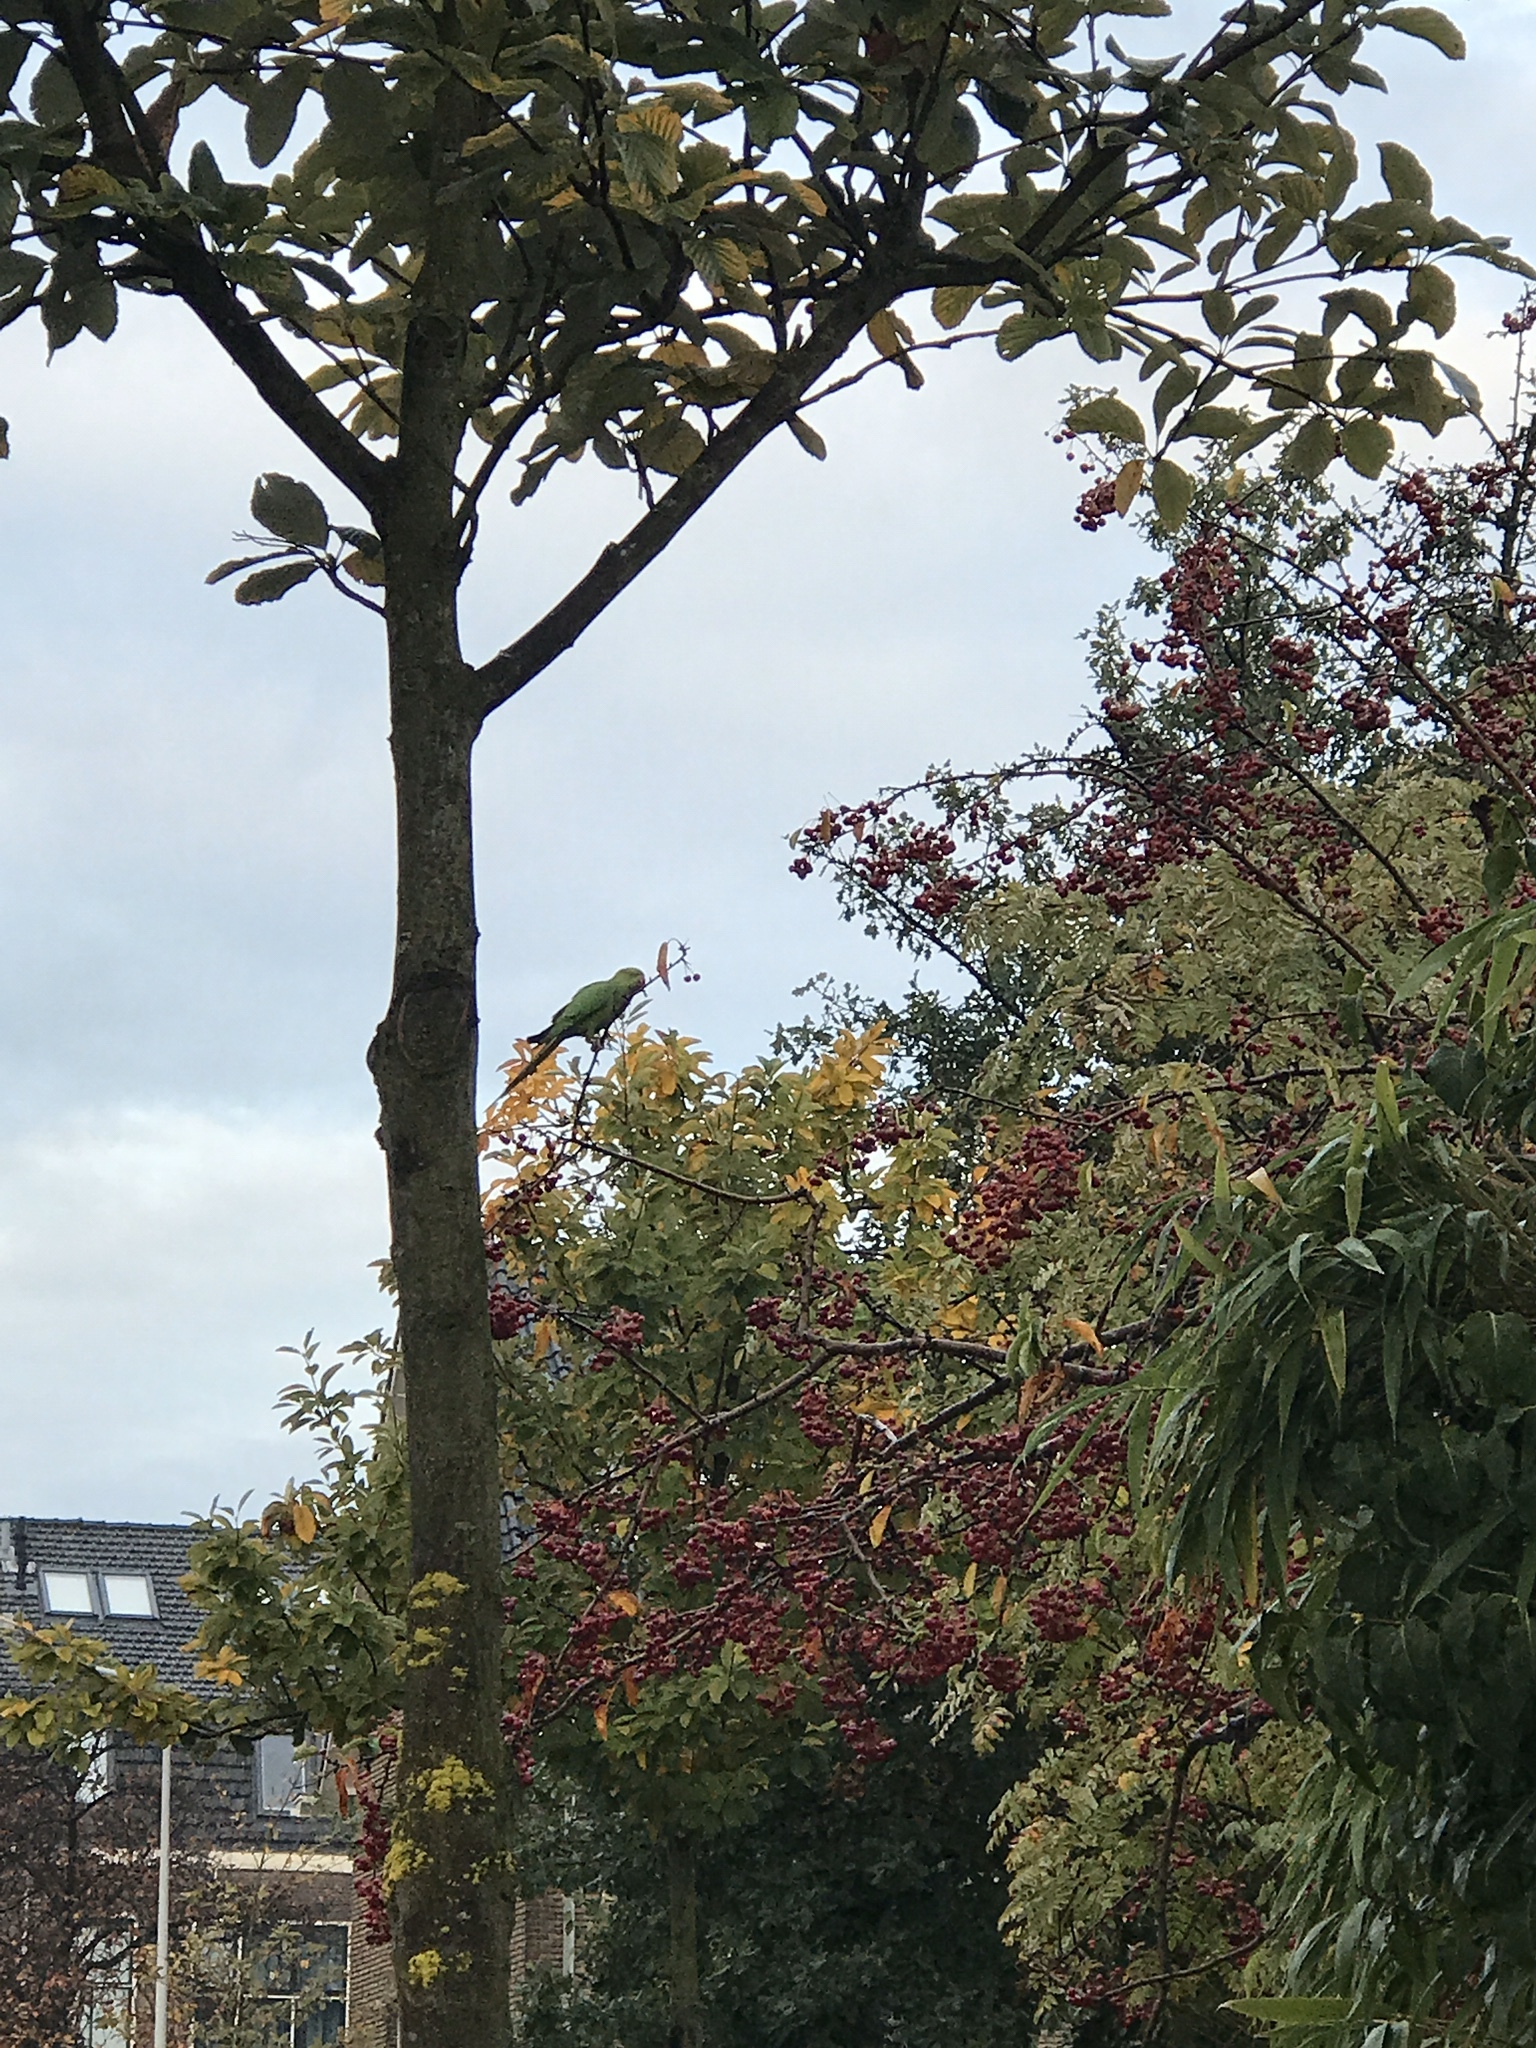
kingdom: Animalia
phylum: Chordata
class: Aves
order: Psittaciformes
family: Psittacidae
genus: Psittacula
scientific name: Psittacula krameri
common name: Rose-ringed parakeet
